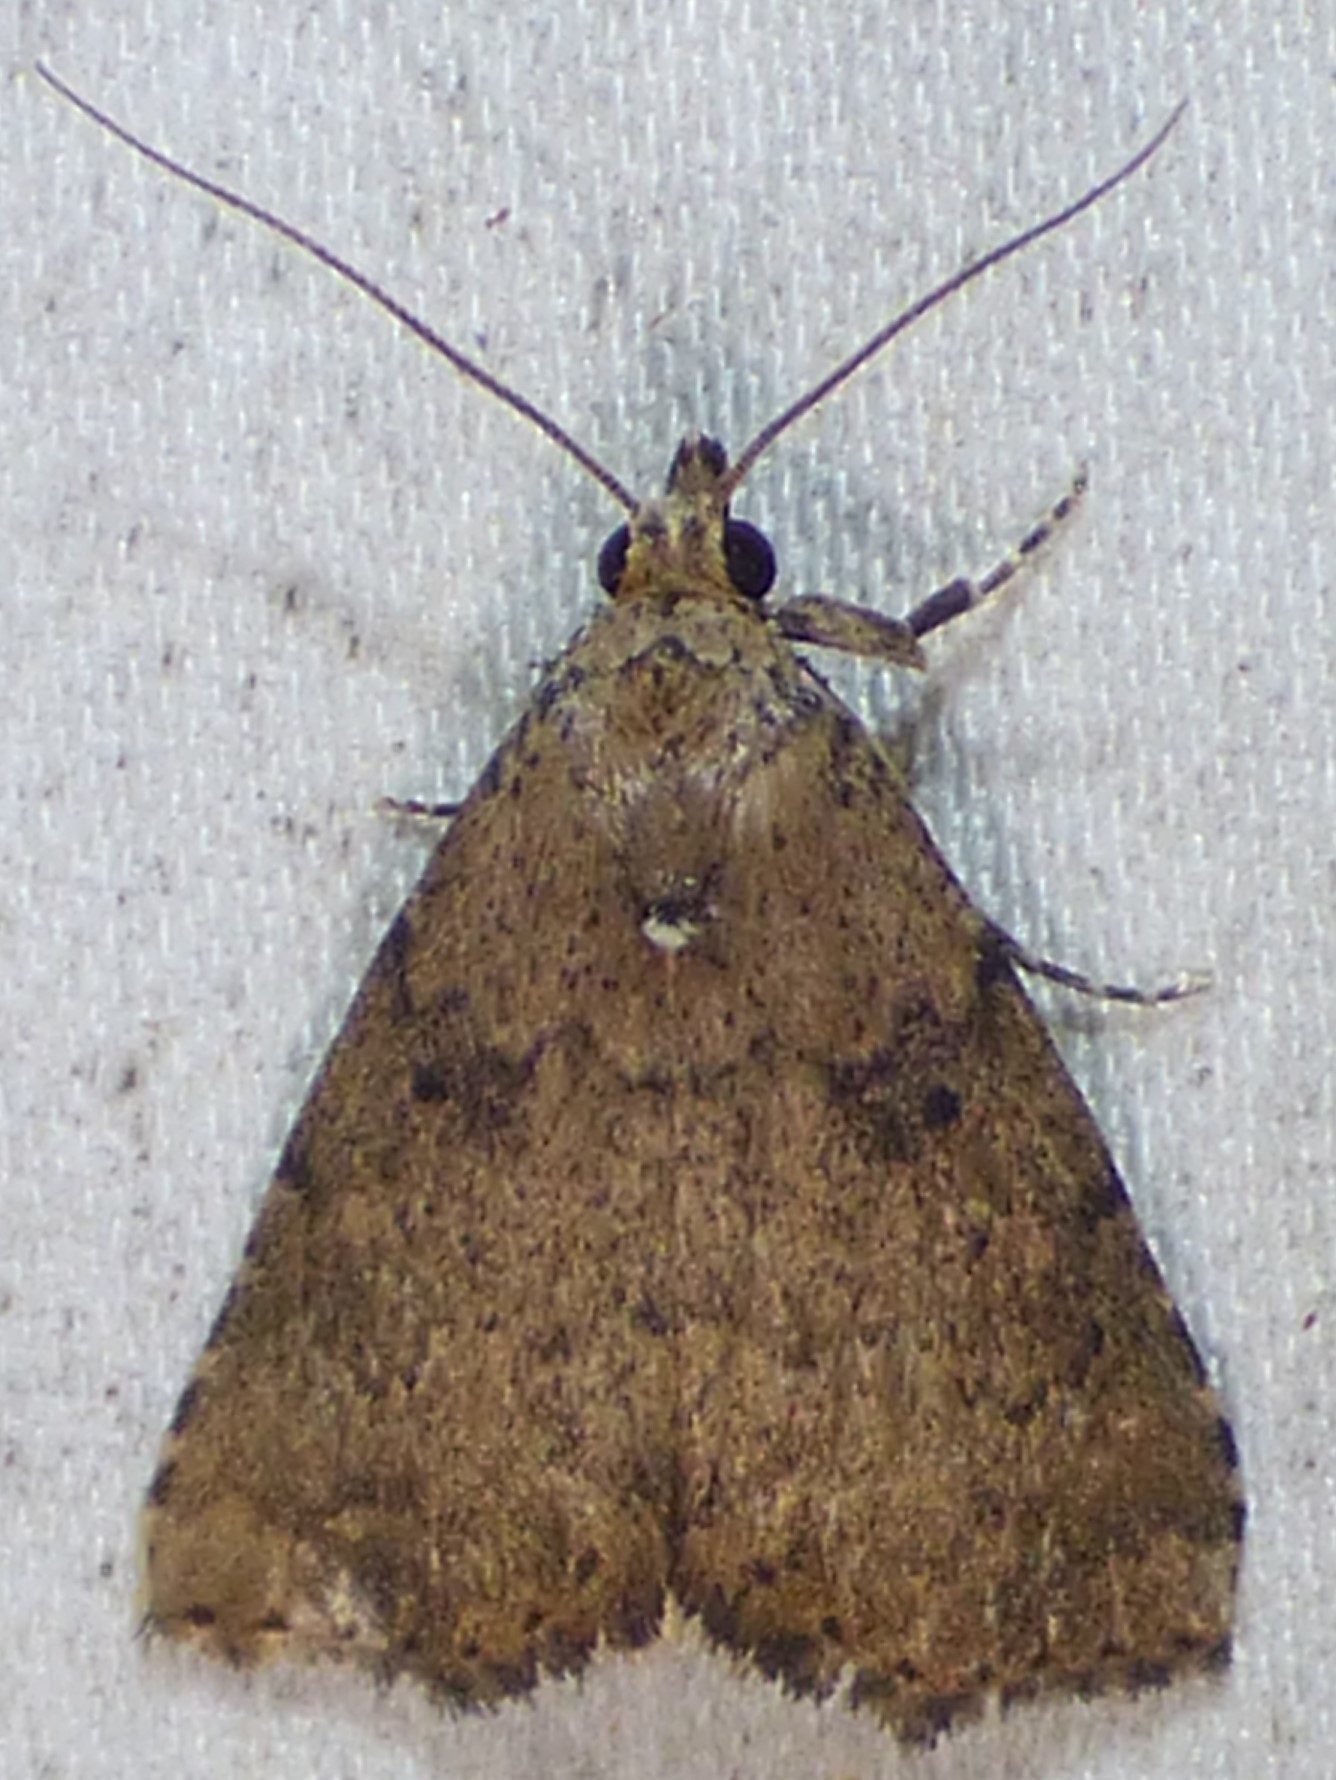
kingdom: Animalia
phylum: Arthropoda
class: Insecta
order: Lepidoptera
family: Erebidae
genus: Arugisa
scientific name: Arugisa latiorella
